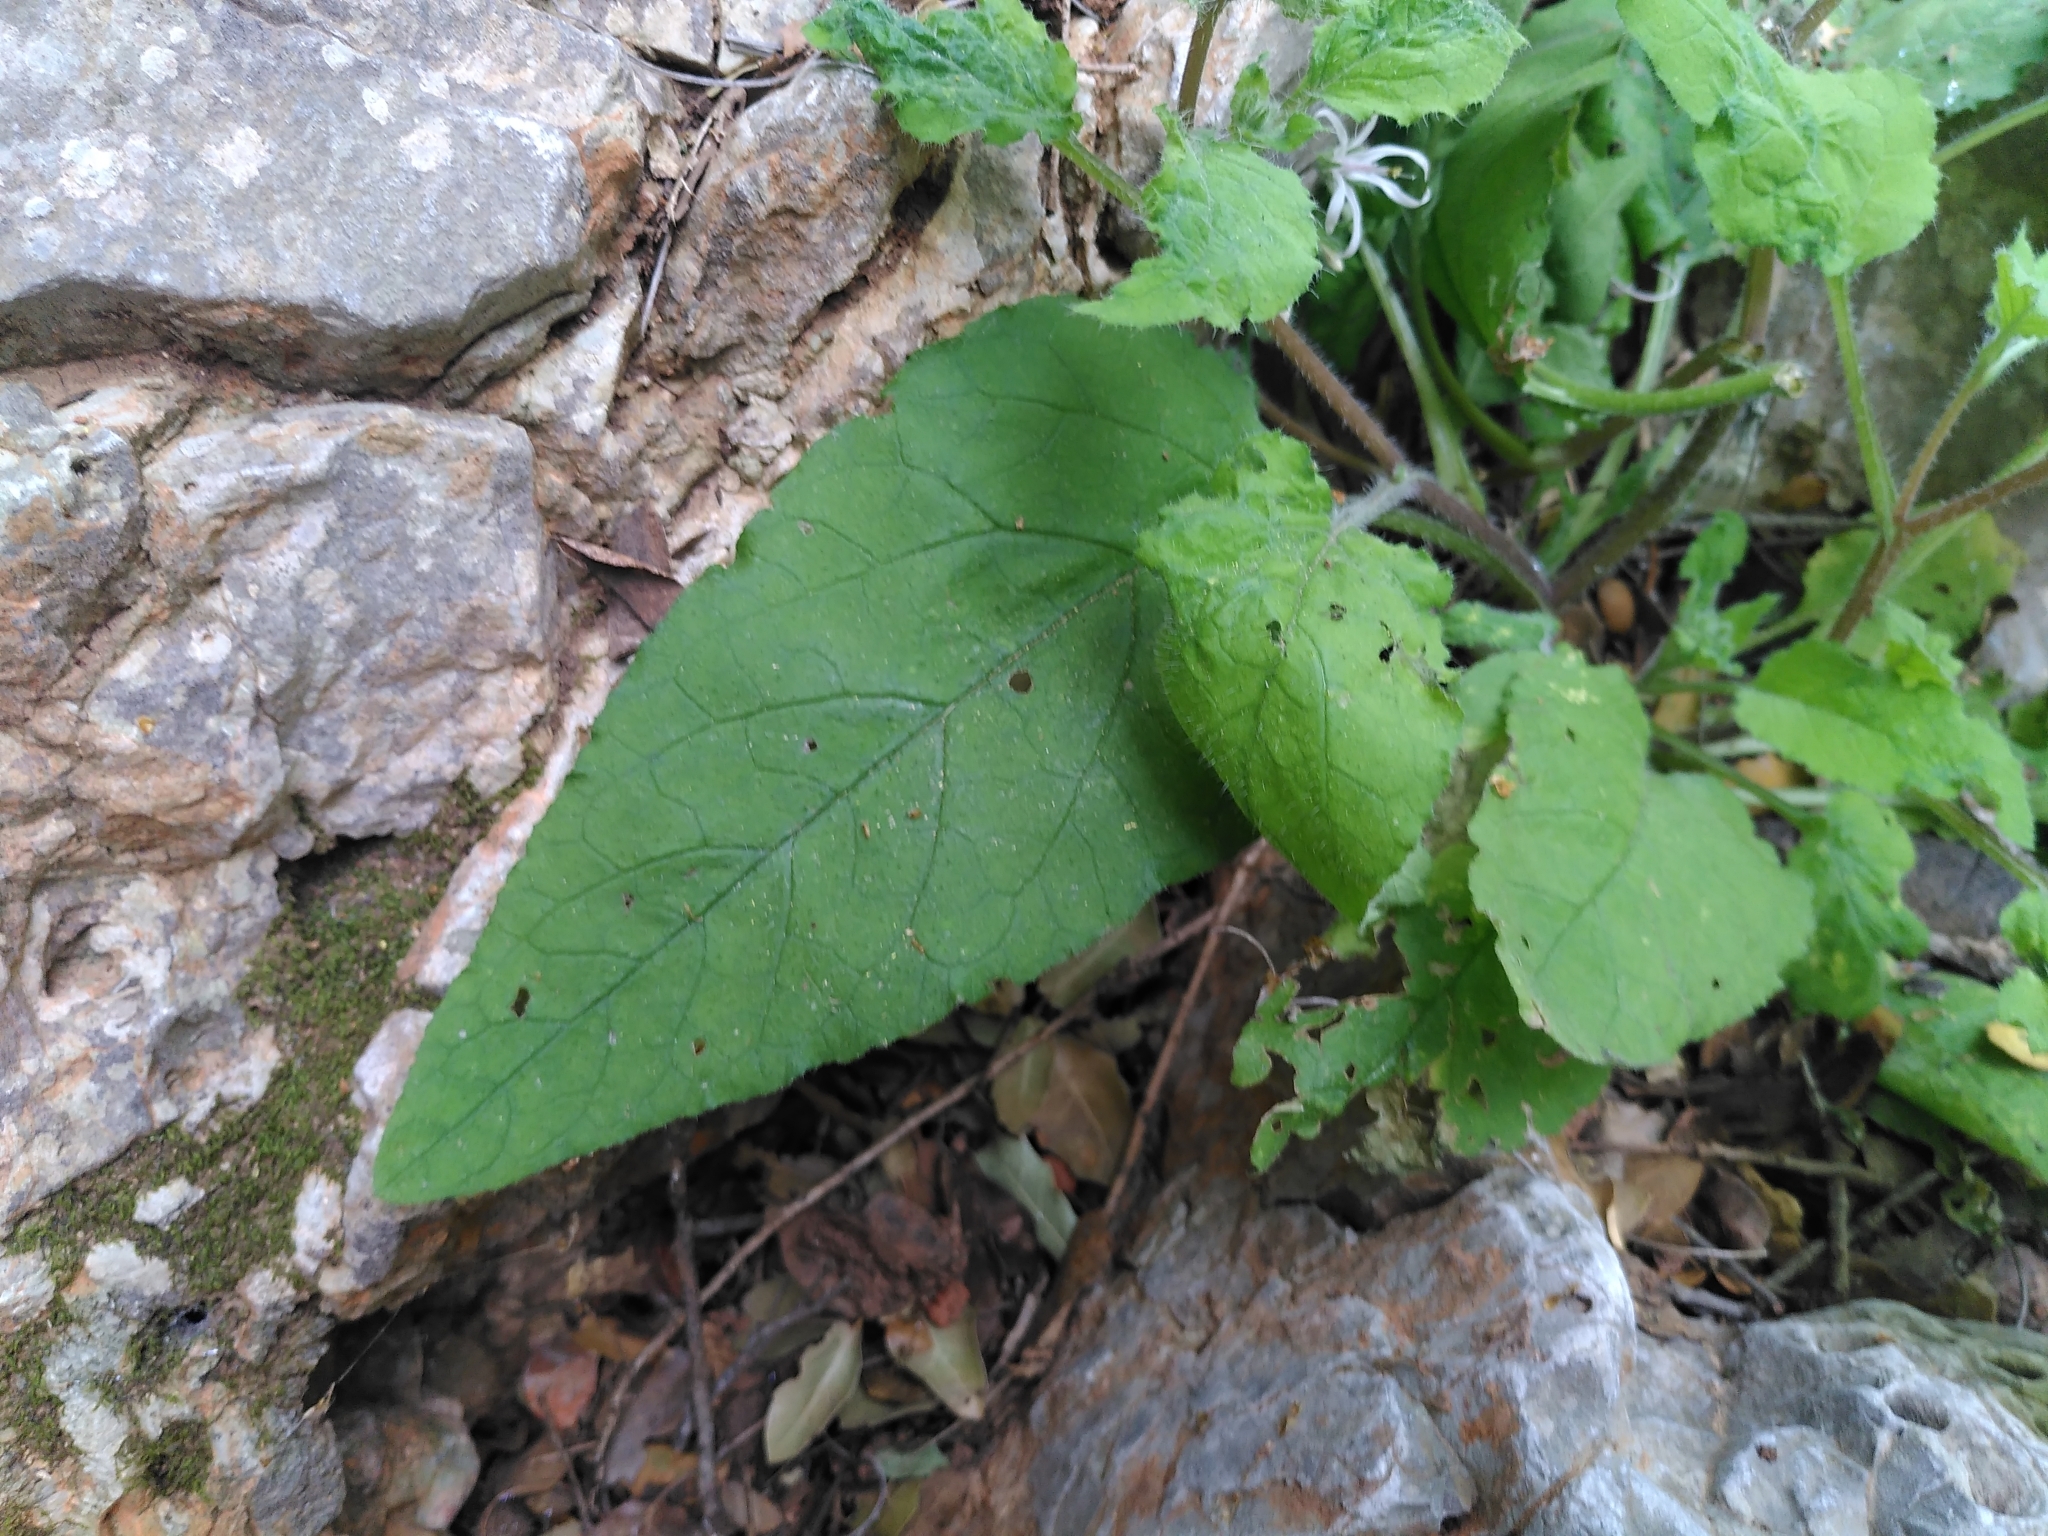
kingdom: Plantae
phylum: Tracheophyta
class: Magnoliopsida
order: Boraginales
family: Boraginaceae
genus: Symphytum
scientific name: Symphytum creticum
